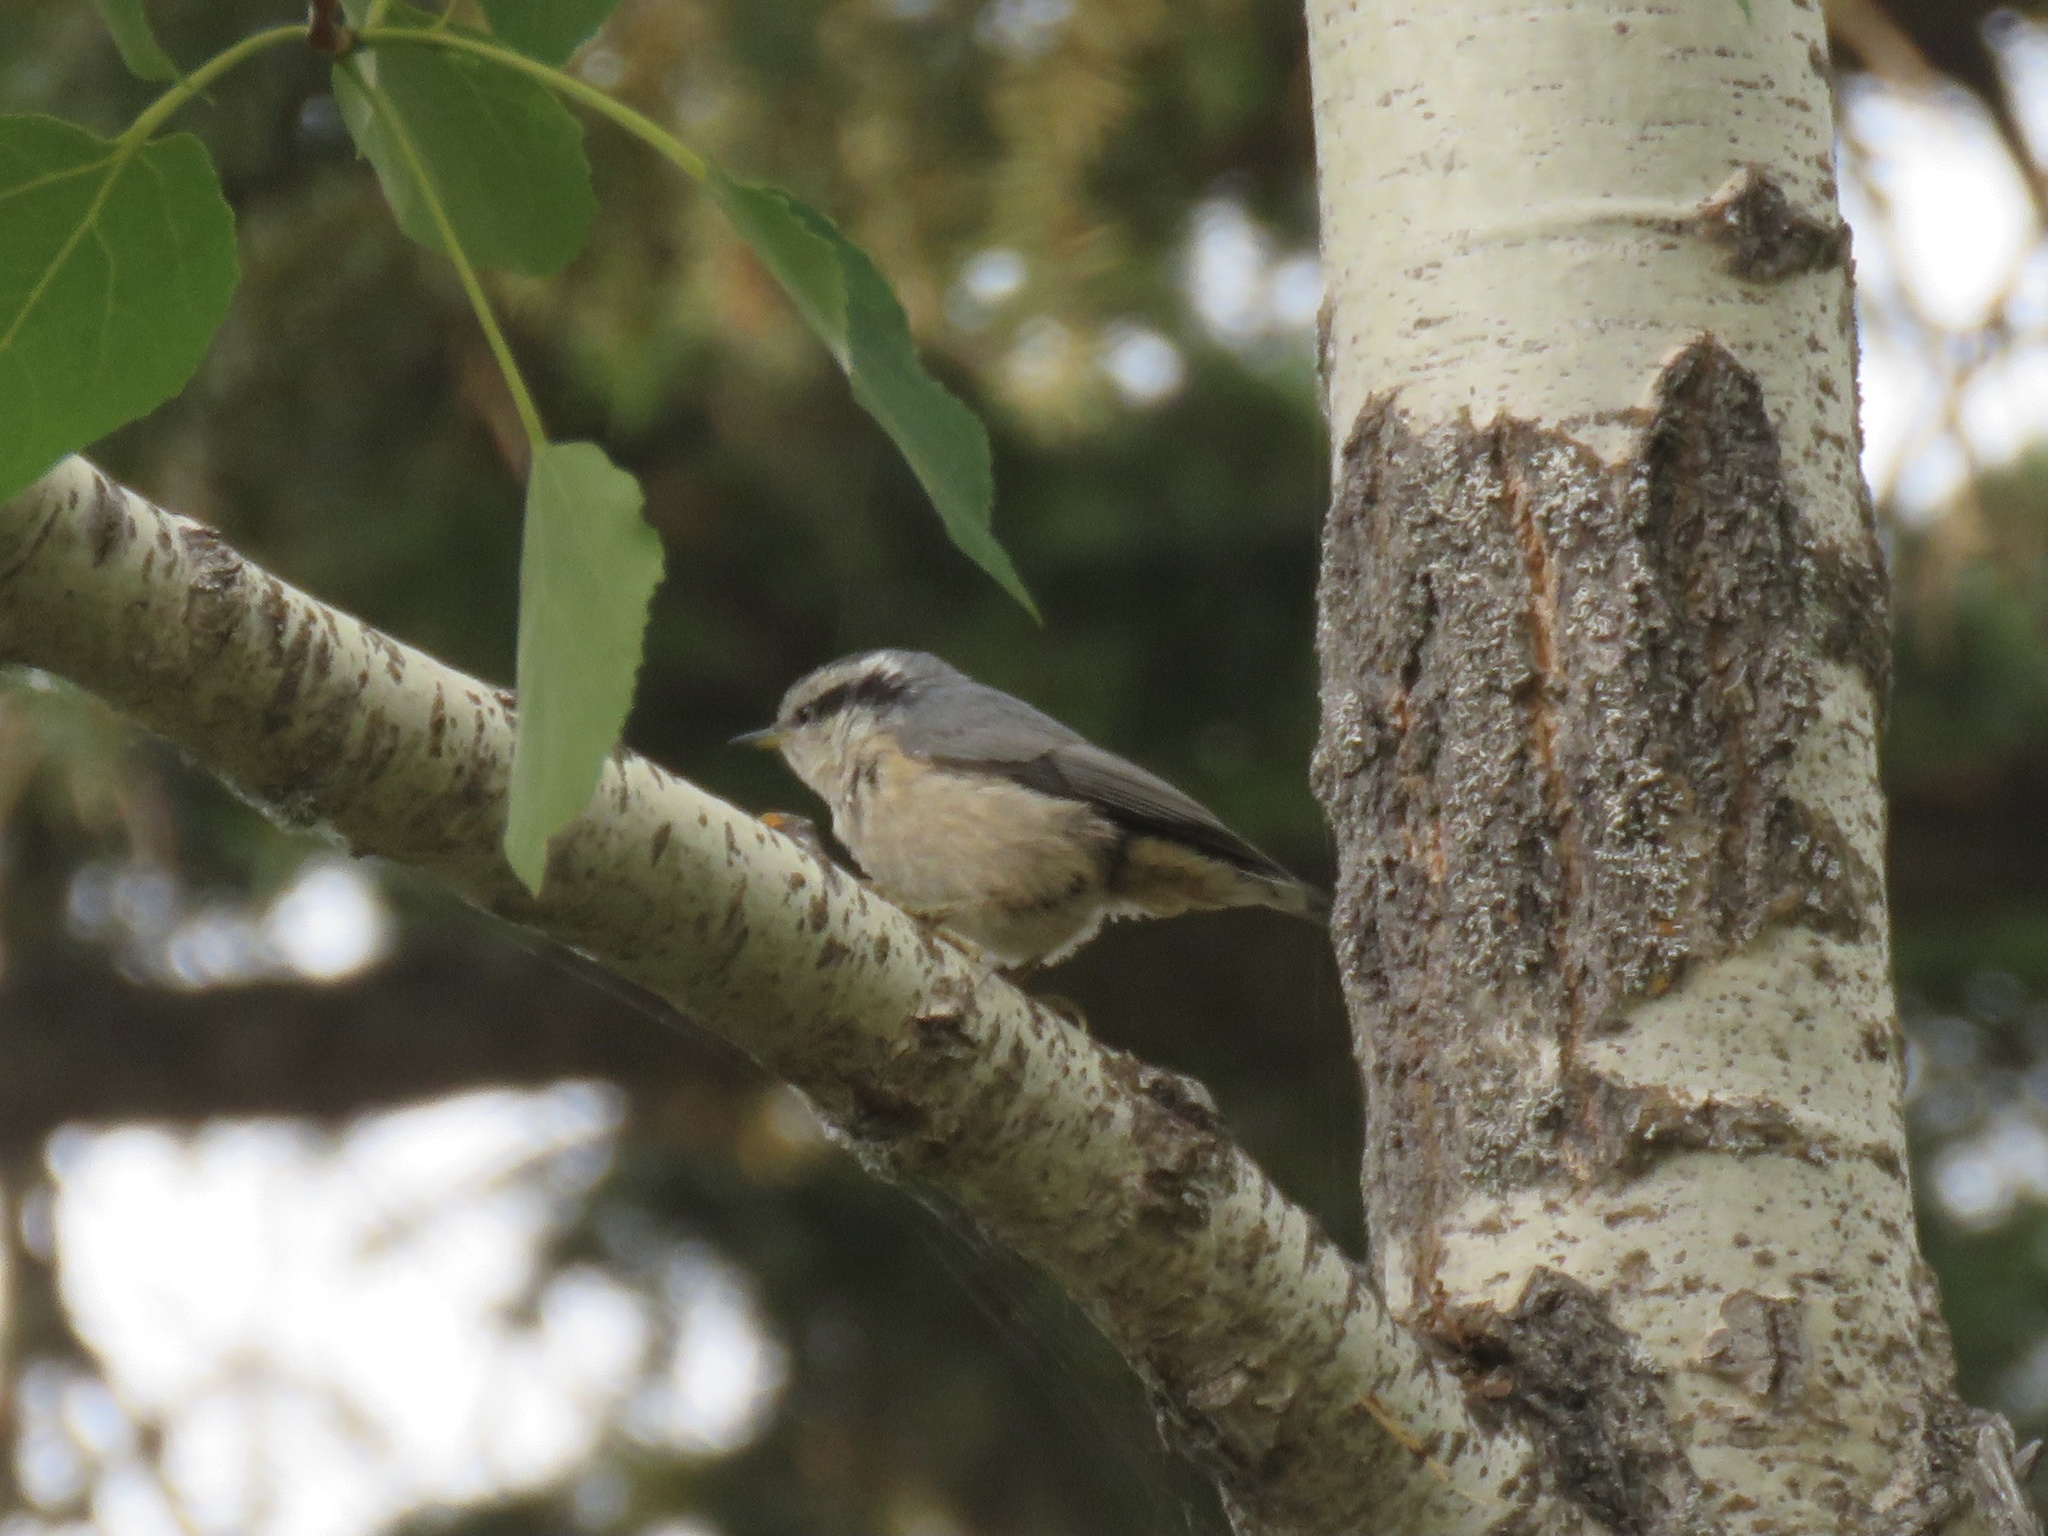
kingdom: Animalia
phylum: Chordata
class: Aves
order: Passeriformes
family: Sittidae
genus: Sitta
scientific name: Sitta canadensis
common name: Red-breasted nuthatch
